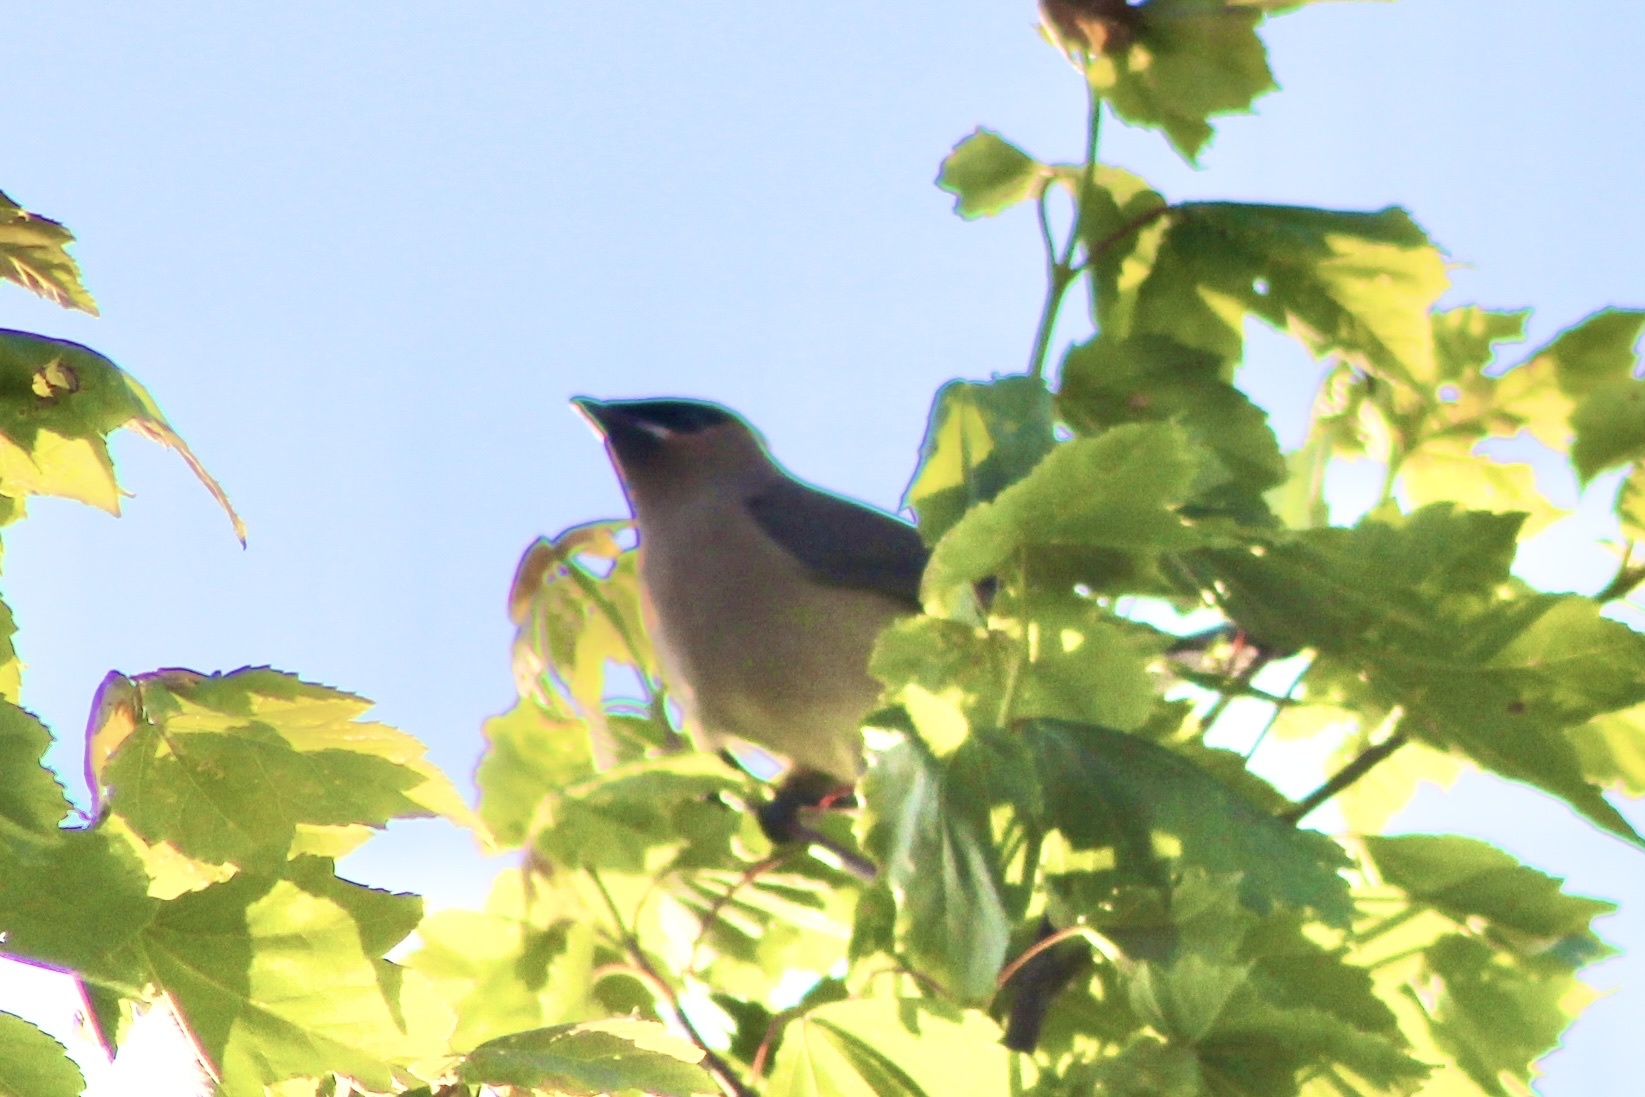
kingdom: Animalia
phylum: Chordata
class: Aves
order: Passeriformes
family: Bombycillidae
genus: Bombycilla
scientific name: Bombycilla cedrorum
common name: Cedar waxwing
